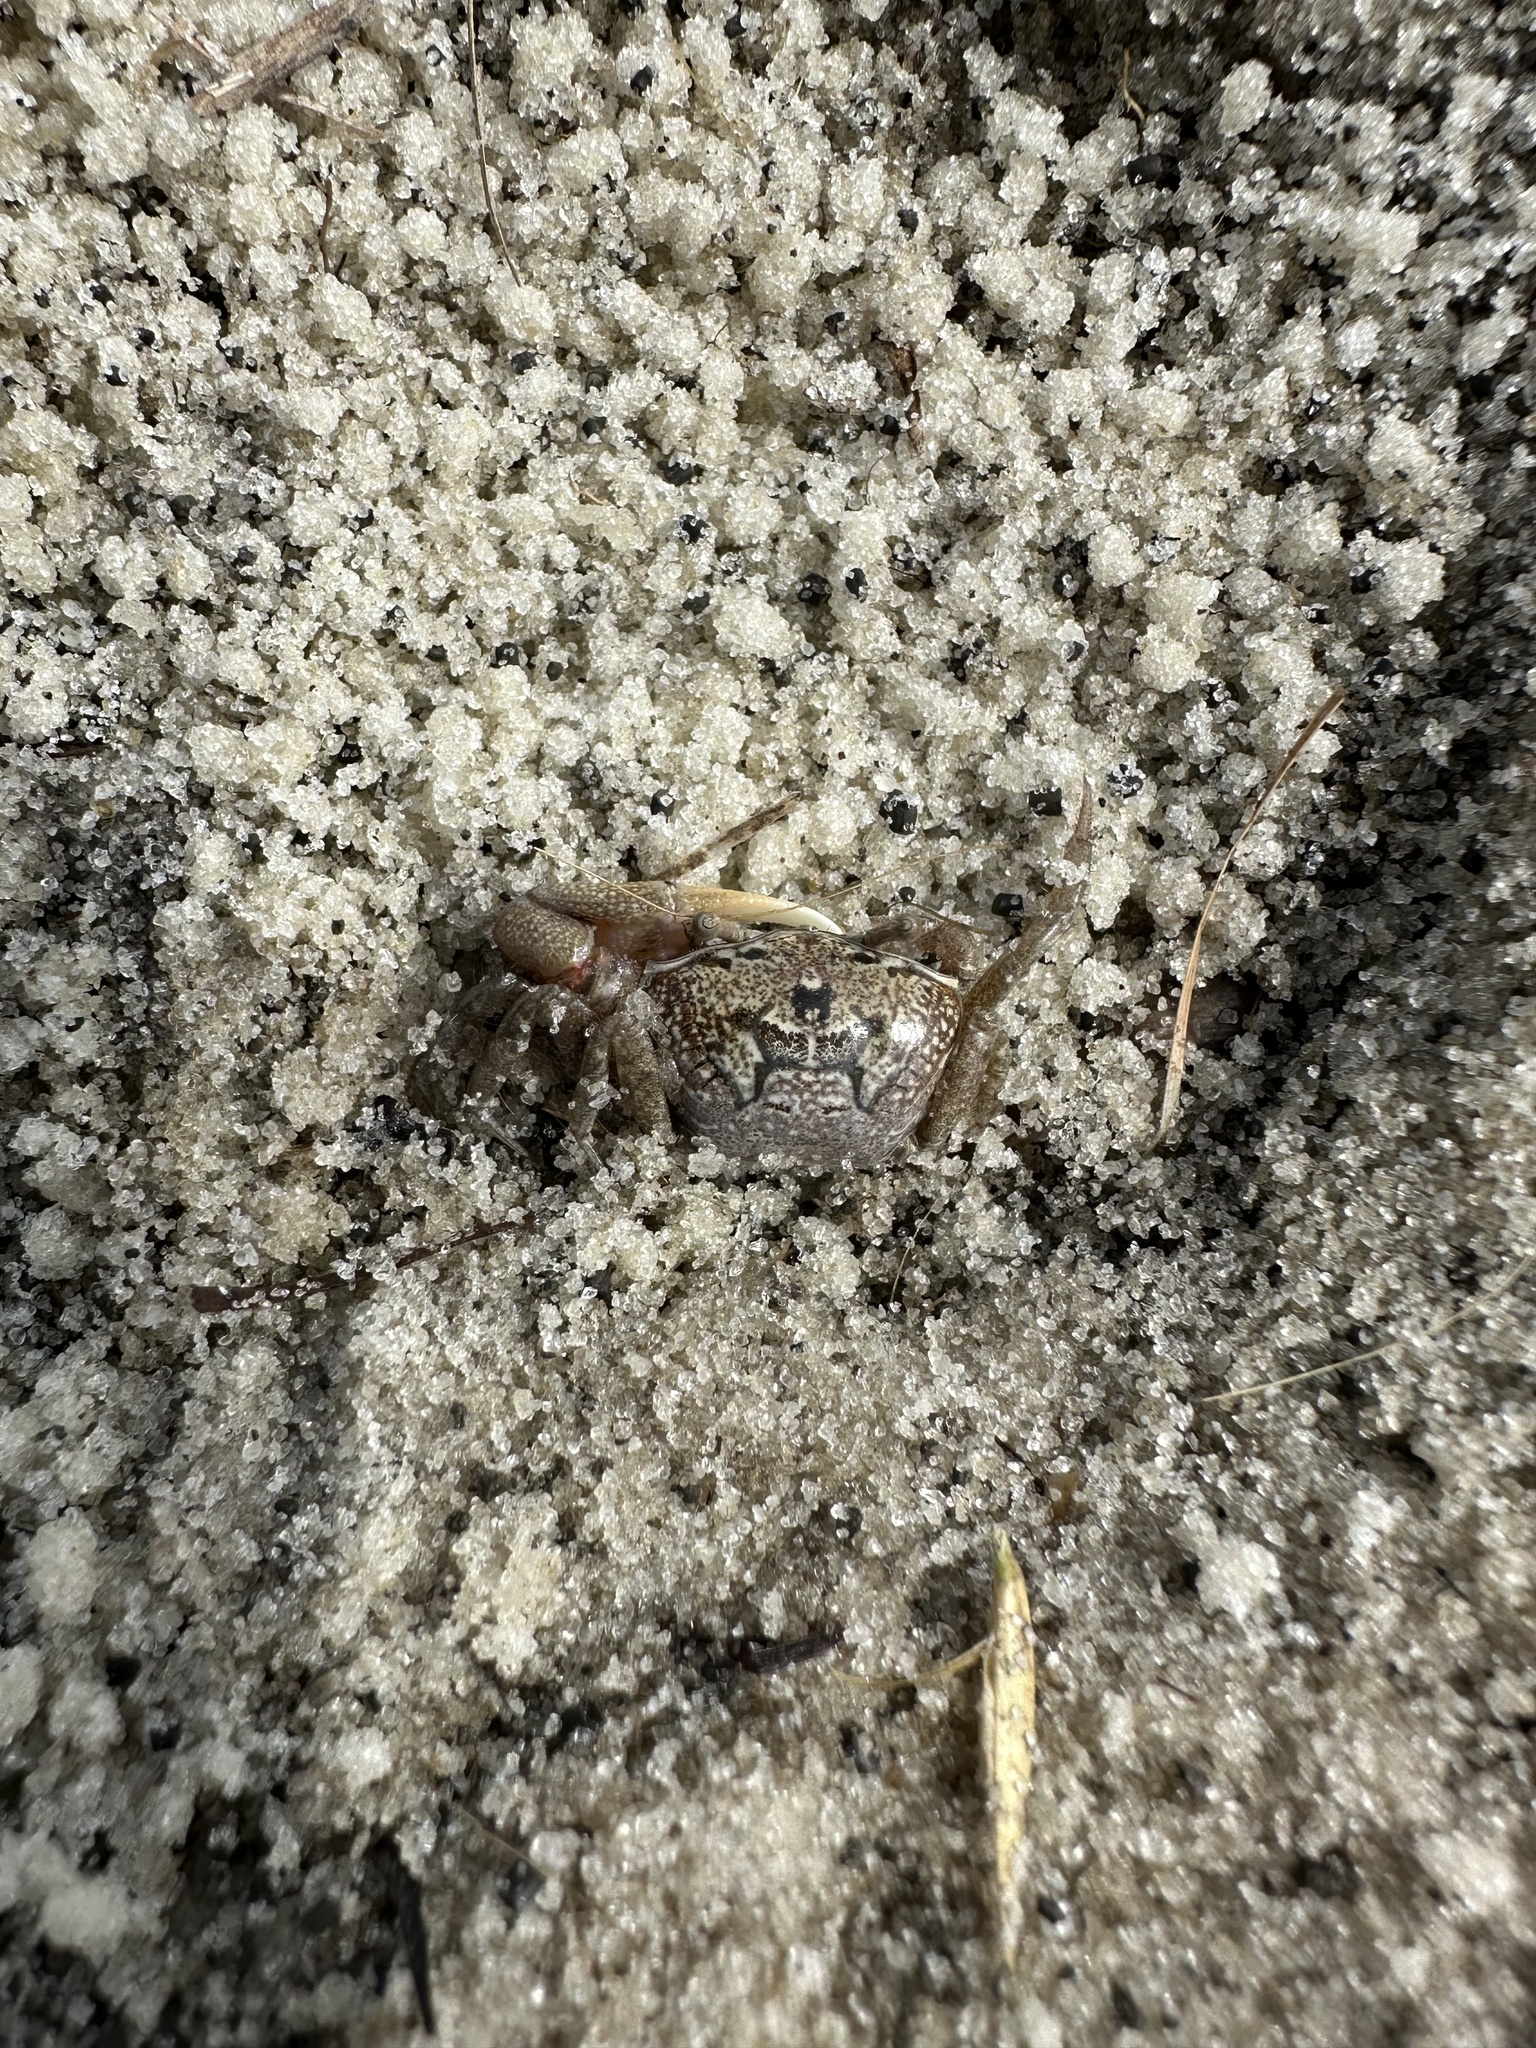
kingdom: Animalia
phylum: Arthropoda
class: Malacostraca
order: Decapoda
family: Ocypodidae
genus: Leptuca
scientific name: Leptuca pugilator
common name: Atlantic sand fiddler crab
